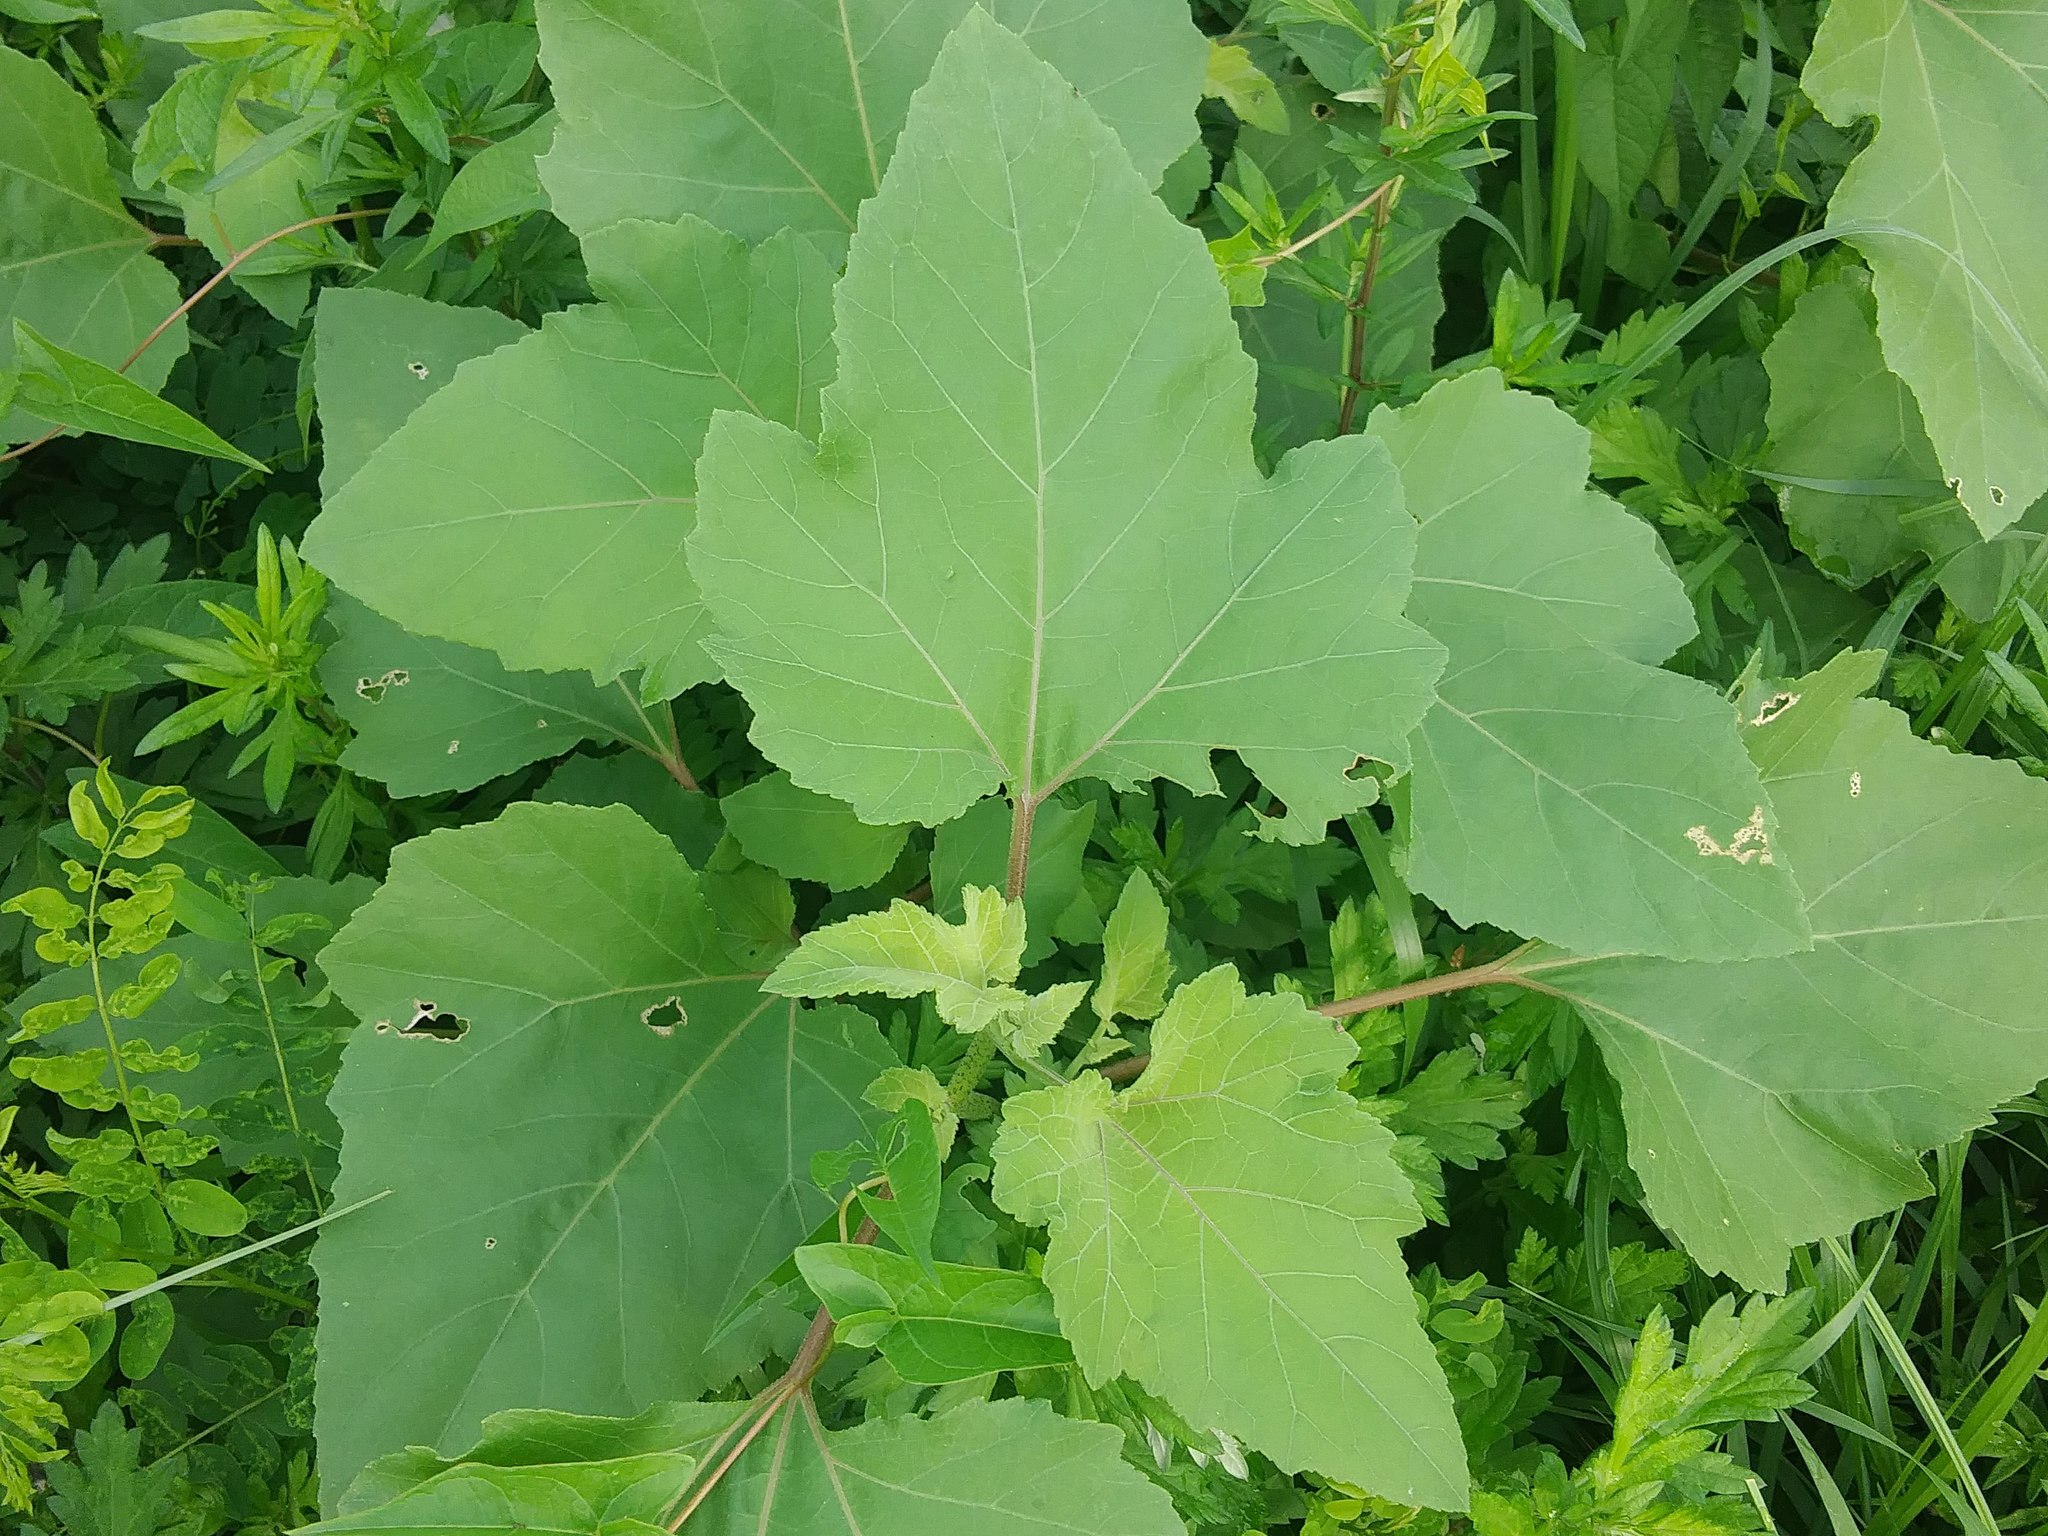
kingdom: Plantae
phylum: Tracheophyta
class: Magnoliopsida
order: Asterales
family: Asteraceae
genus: Xanthium
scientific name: Xanthium strumarium
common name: Rough cocklebur
